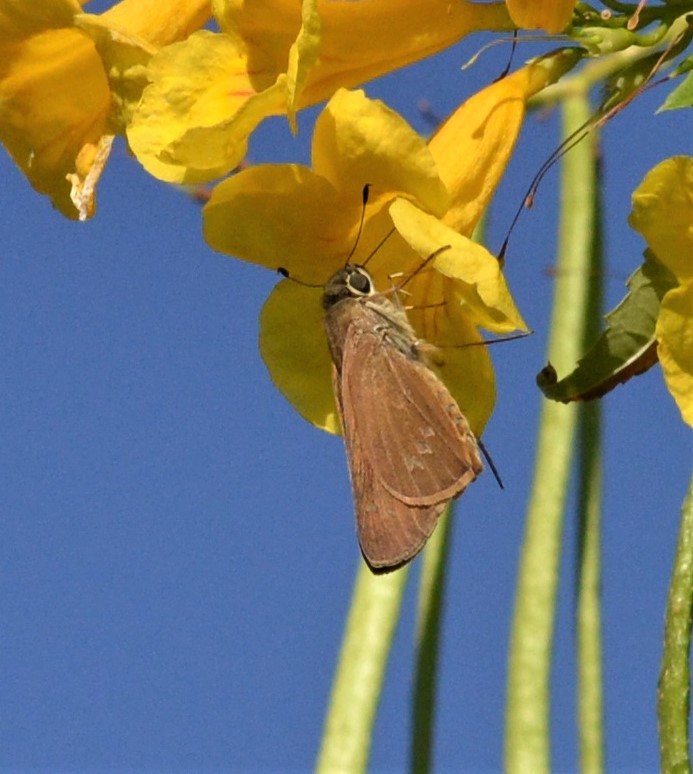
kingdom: Animalia
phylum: Arthropoda
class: Insecta
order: Lepidoptera
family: Hesperiidae
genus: Calpodes
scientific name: Calpodes ethlius
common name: Brazilian skipper
